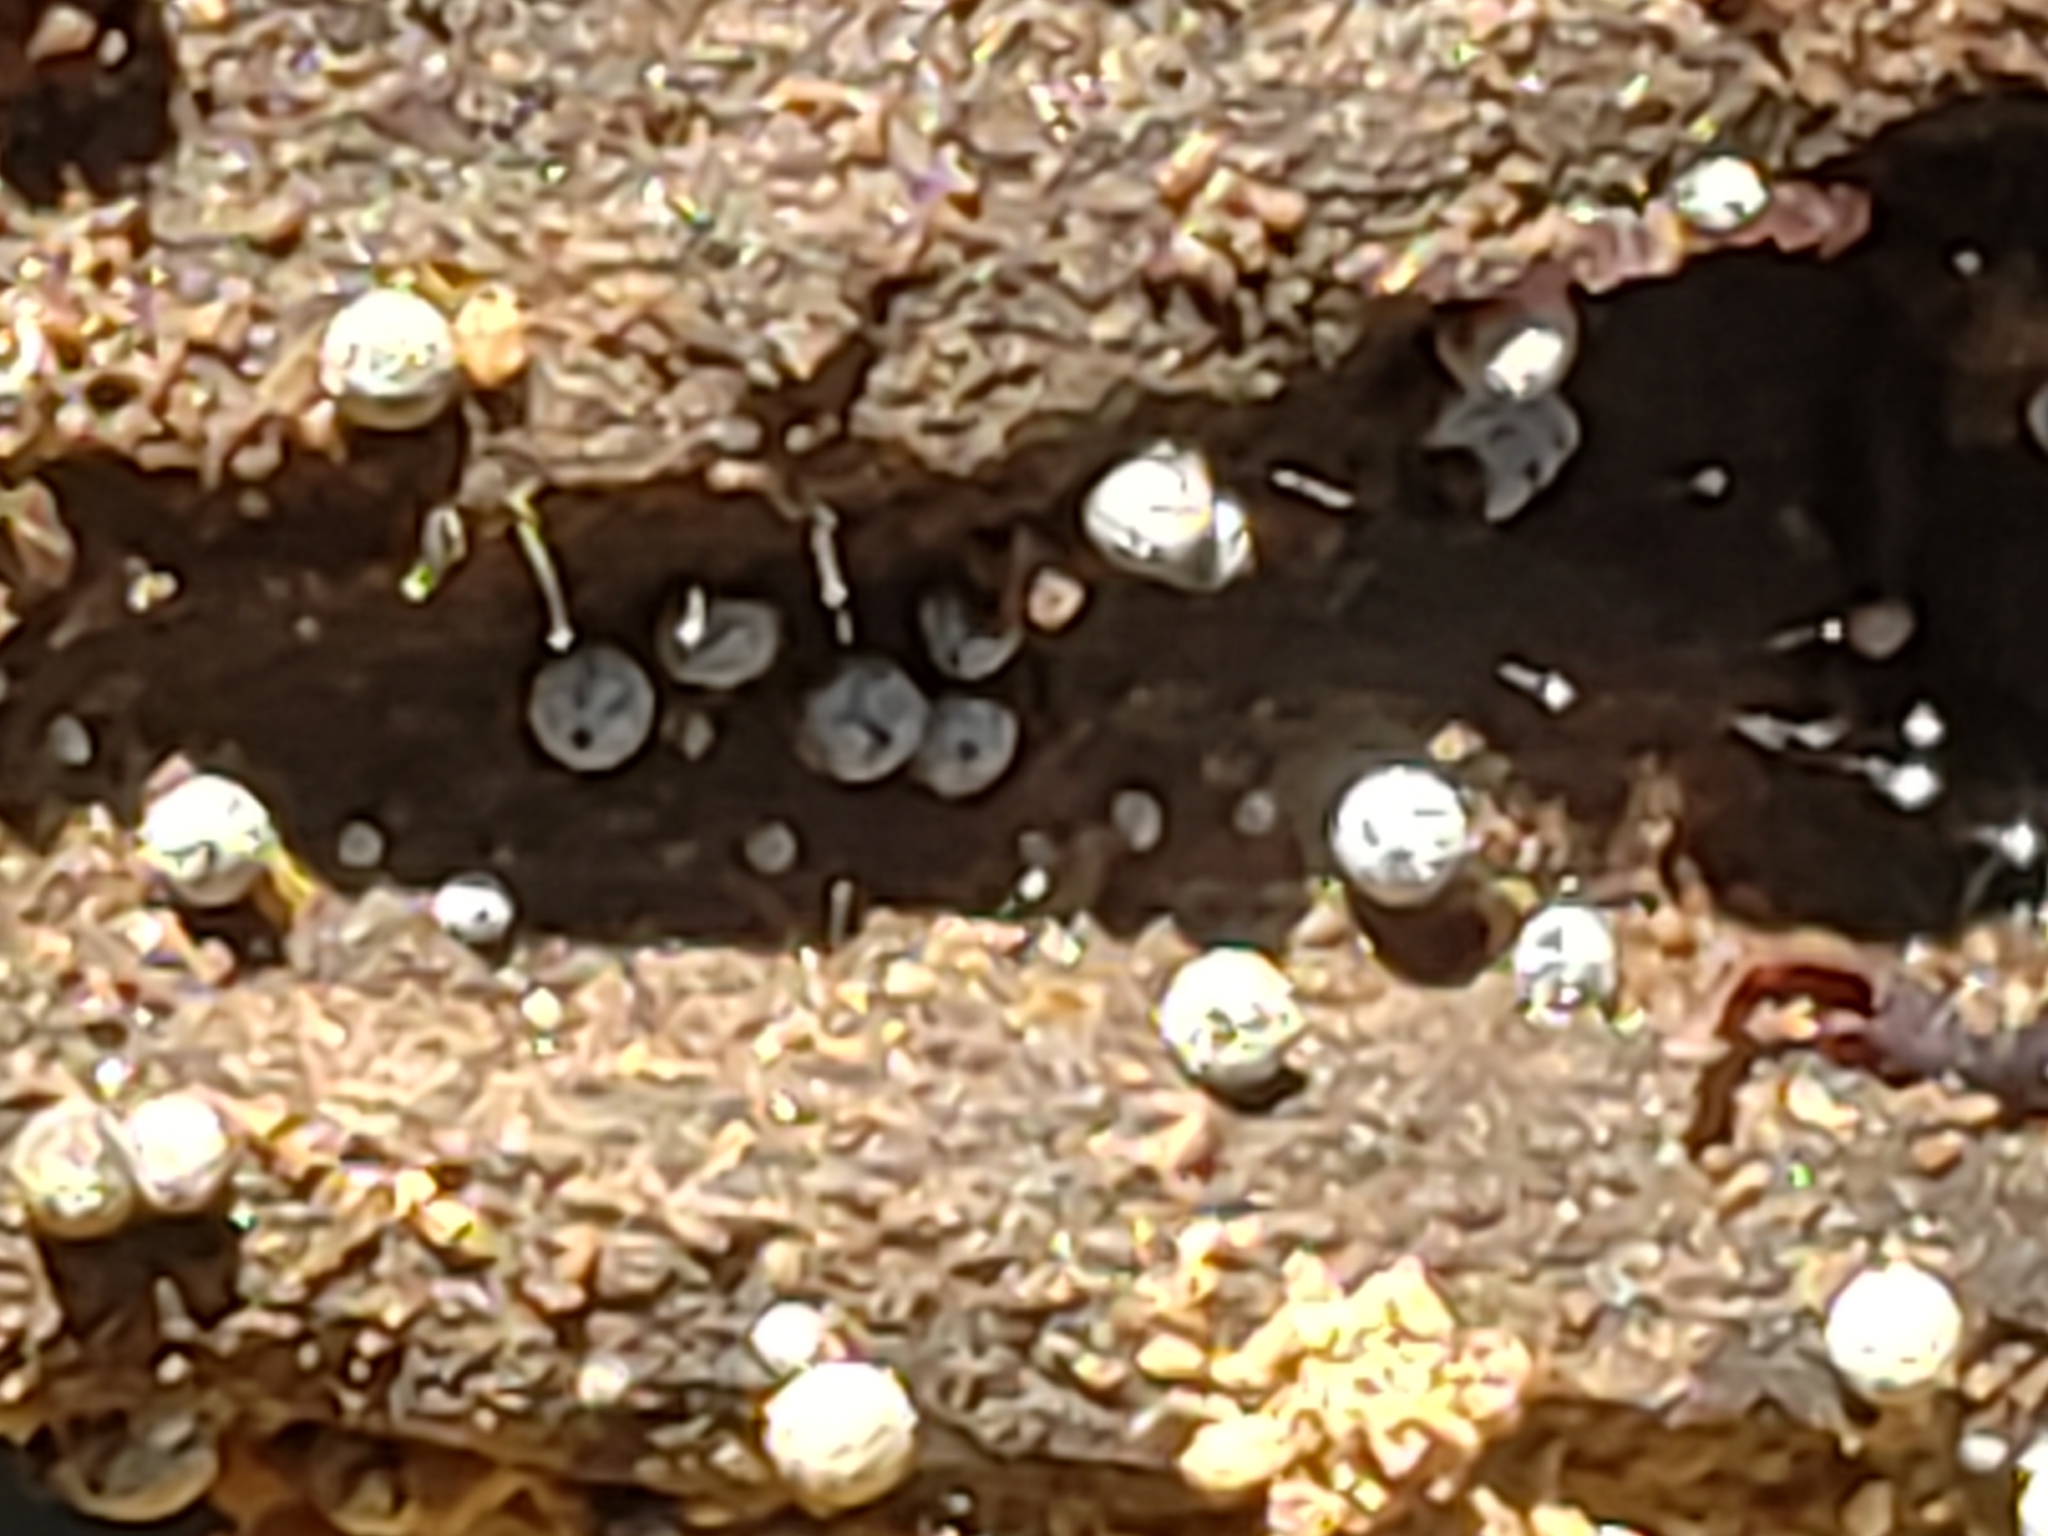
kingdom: Fungi
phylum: Ascomycota
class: Sordariomycetes
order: Sordariales
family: Lasiosphaeriaceae
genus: Lasiosphaeria
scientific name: Lasiosphaeria ovina
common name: Woolly woodwart
